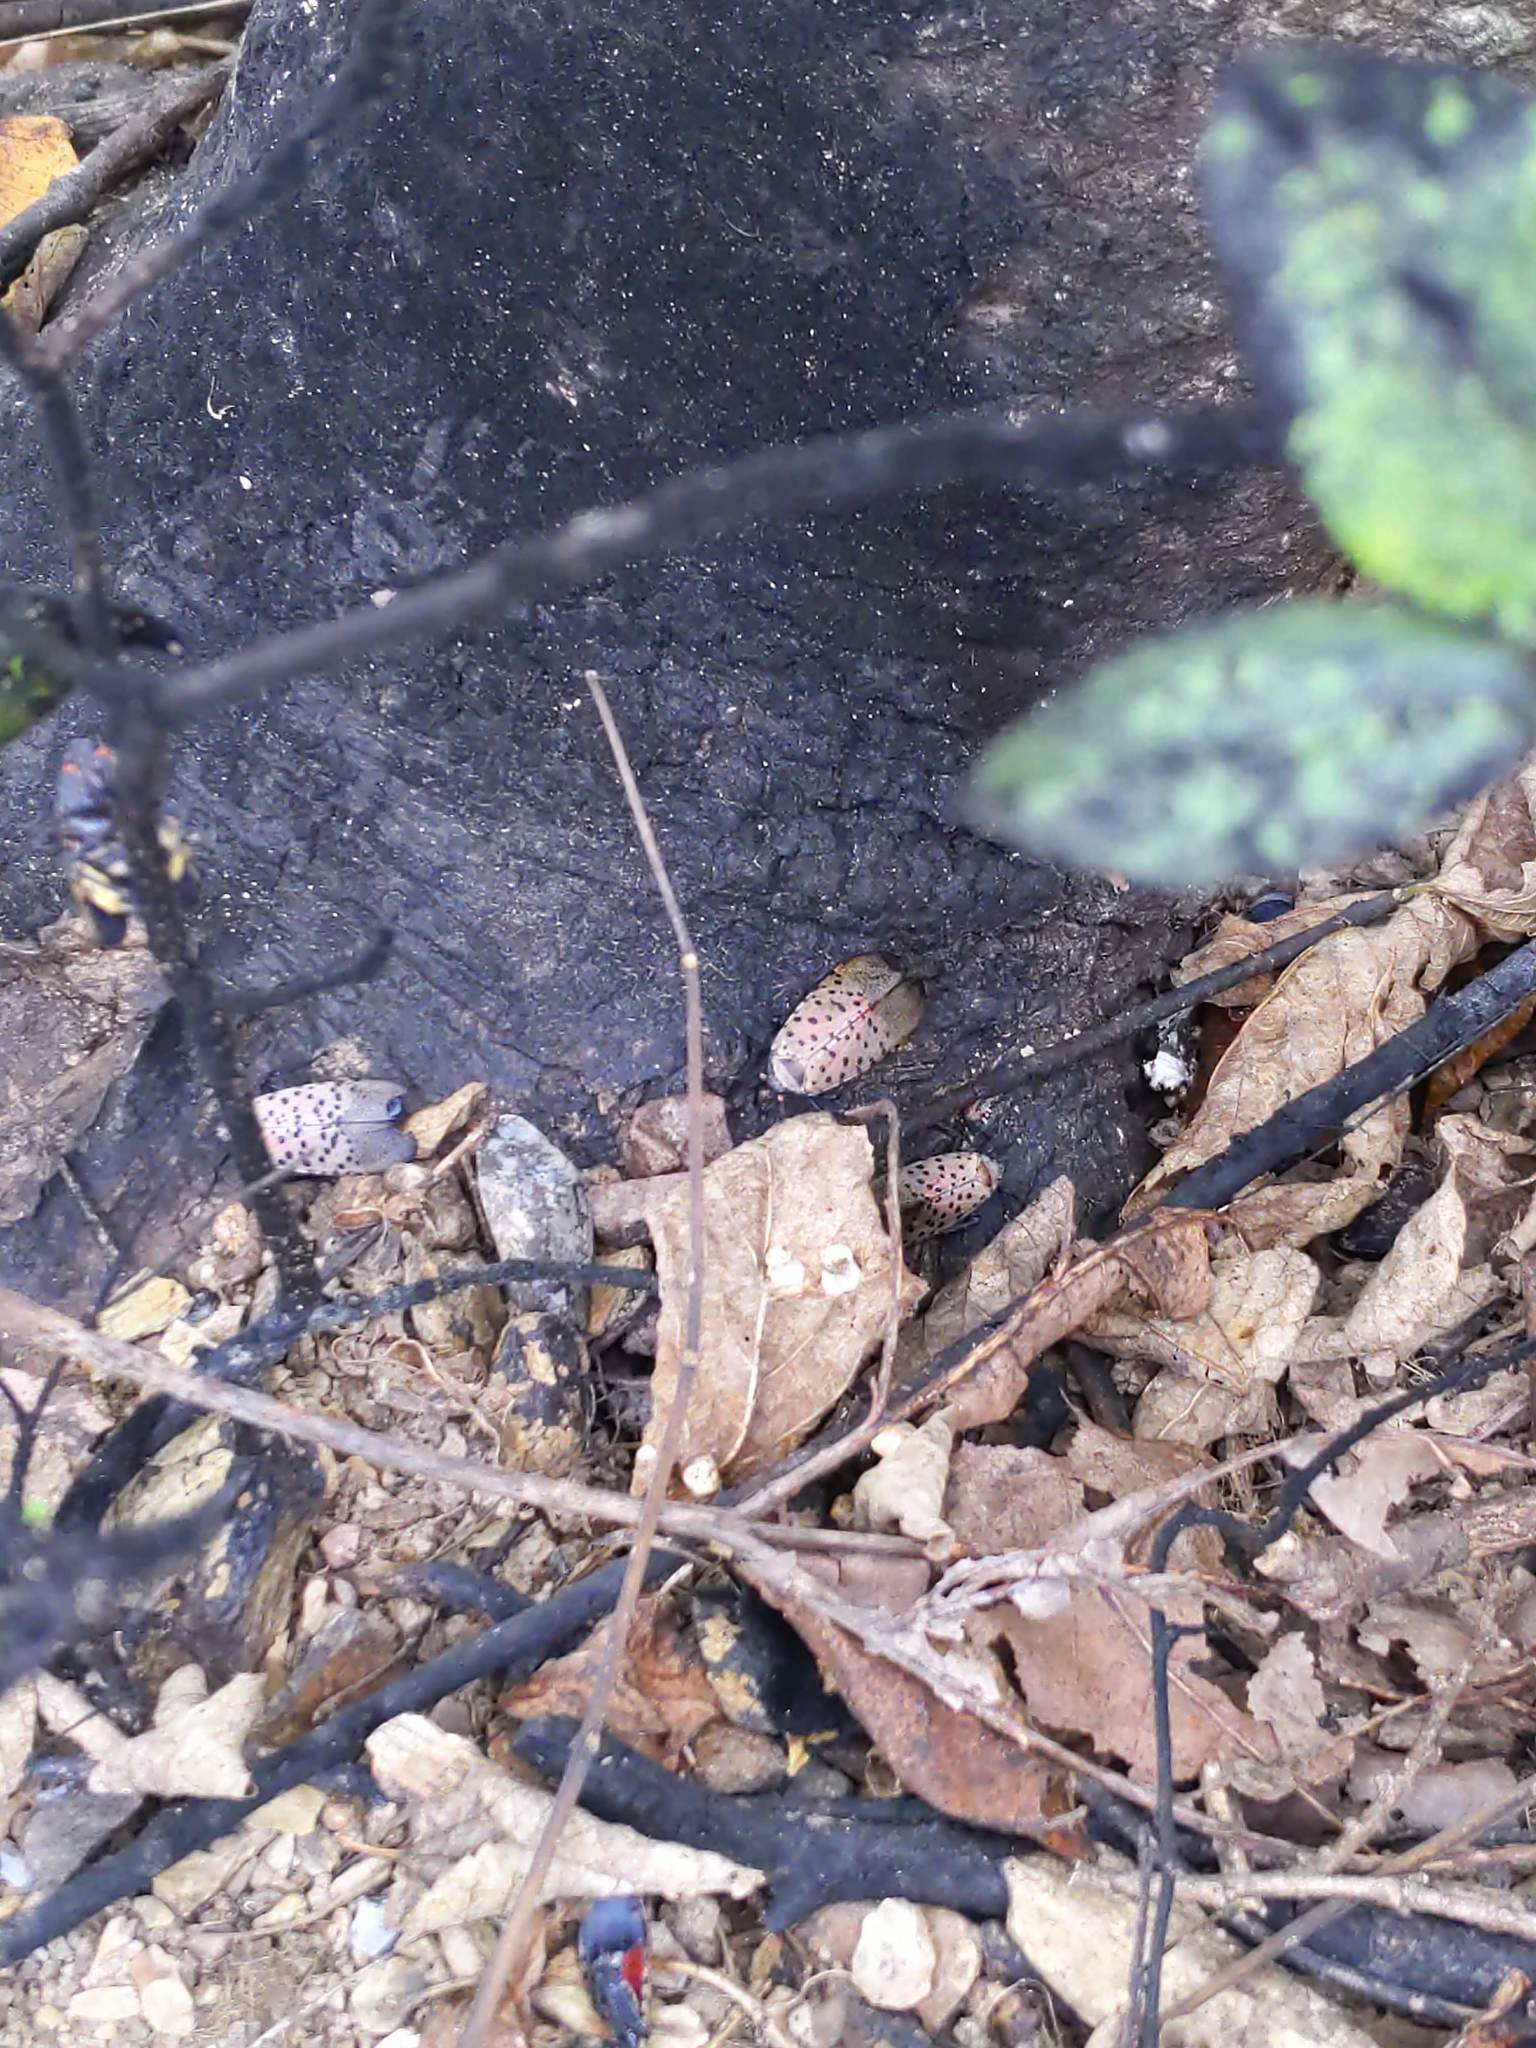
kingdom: Animalia
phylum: Arthropoda
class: Insecta
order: Hemiptera
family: Fulgoridae
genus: Lycorma
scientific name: Lycorma delicatula
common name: Spotted lanternfly
